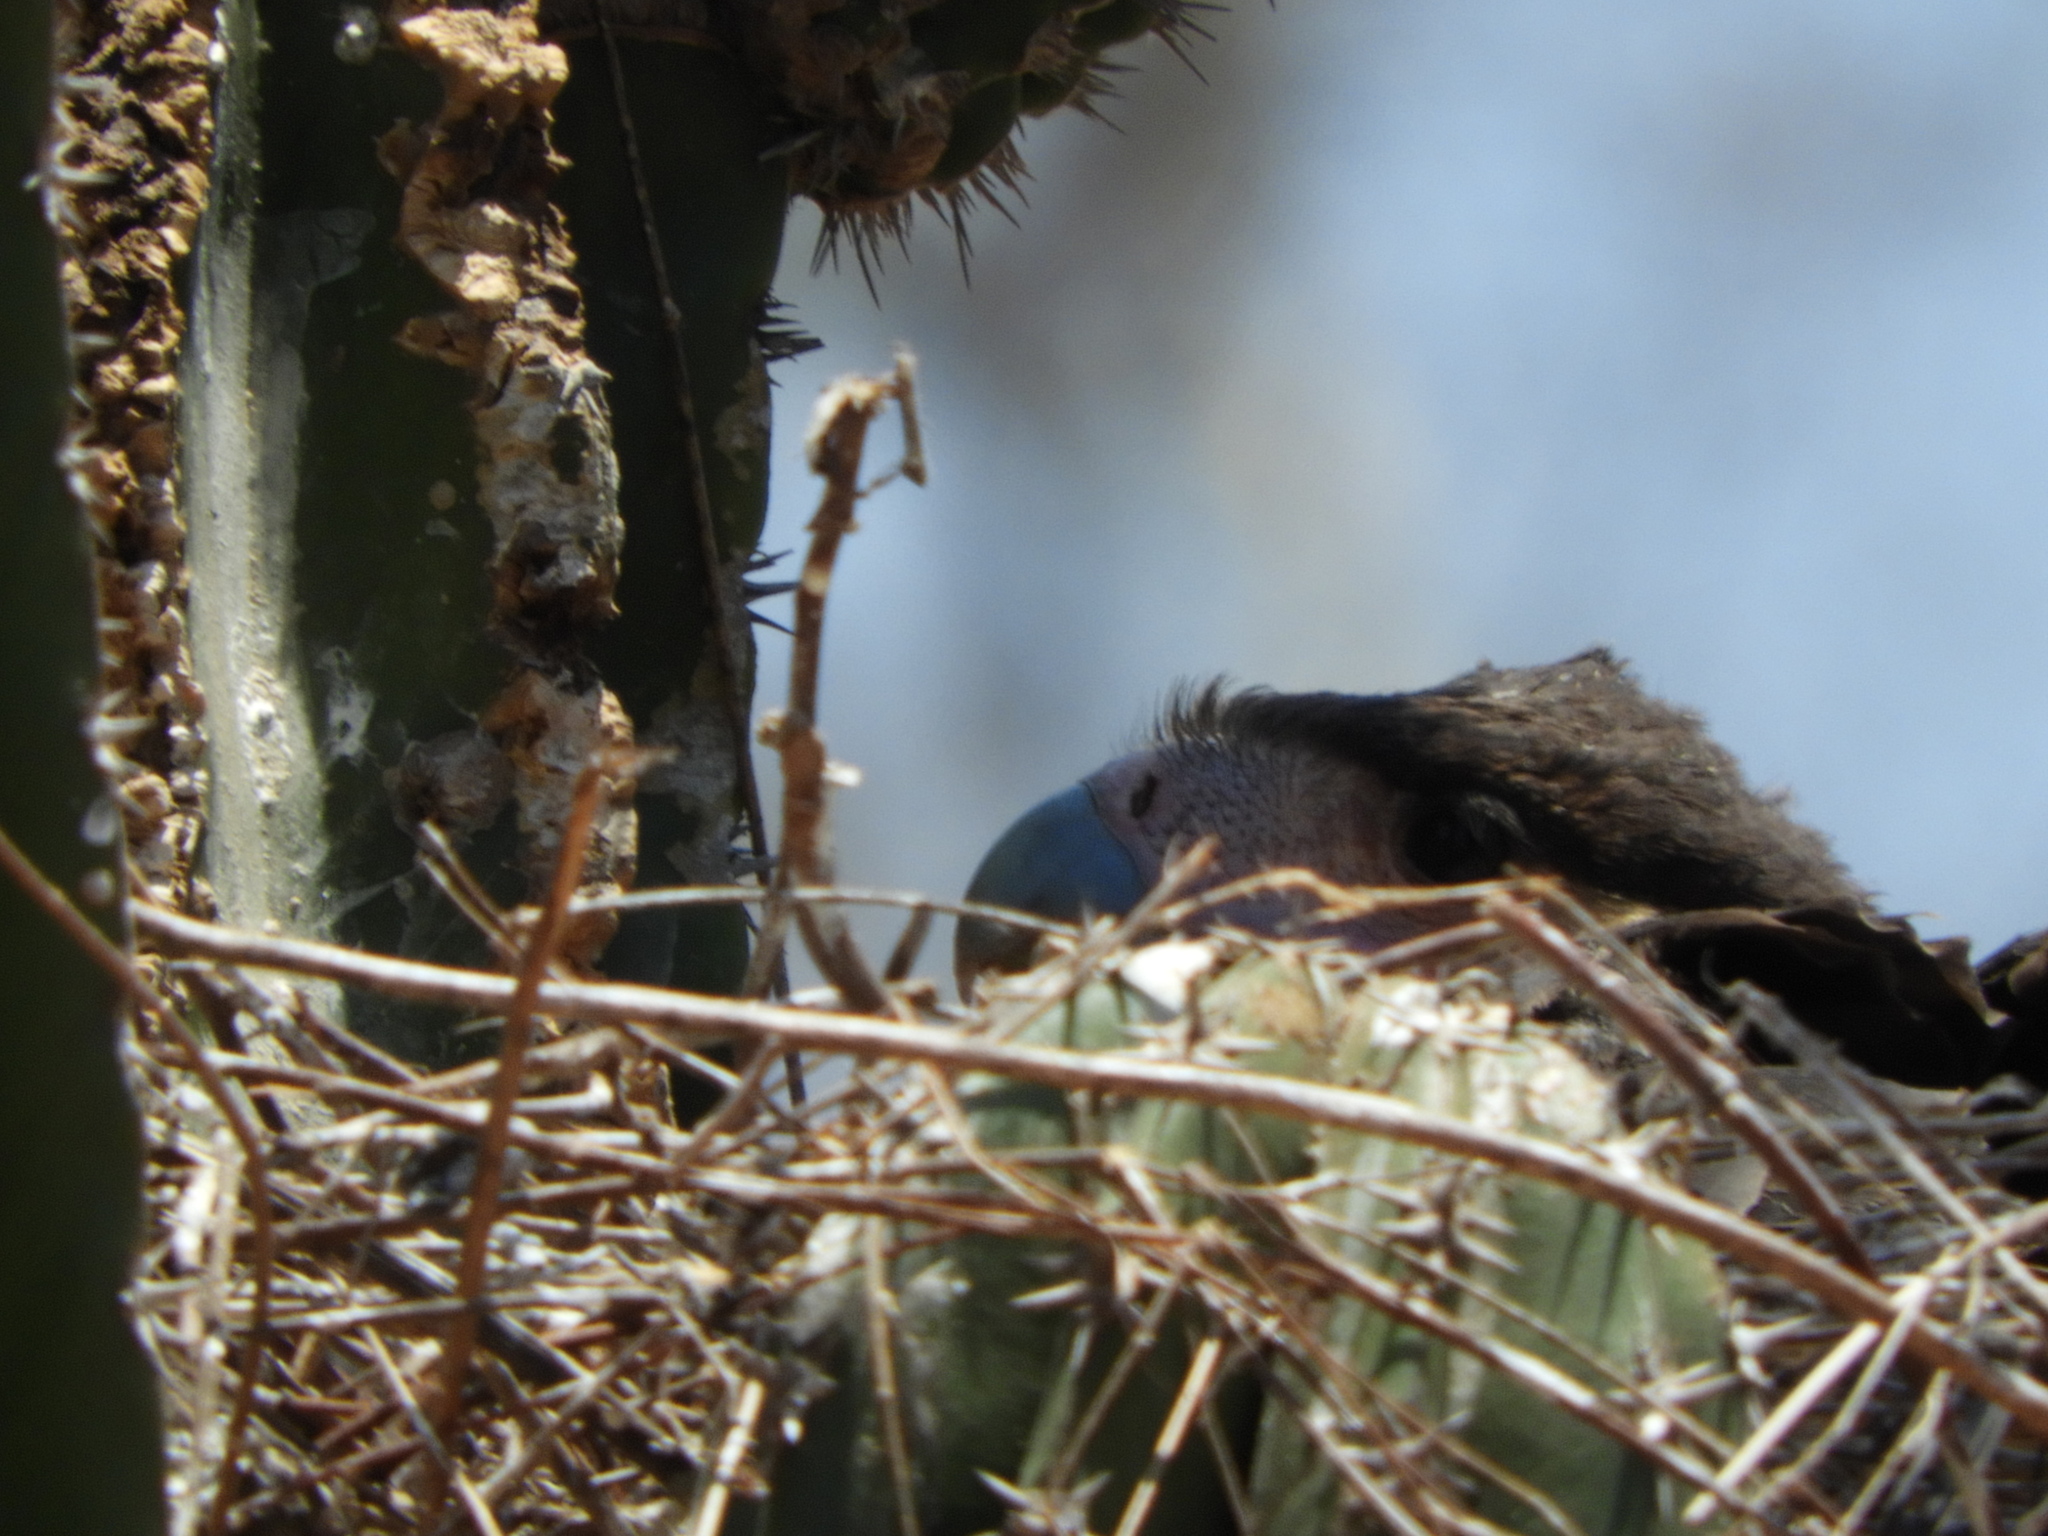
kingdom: Animalia
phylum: Chordata
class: Aves
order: Falconiformes
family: Falconidae
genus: Caracara
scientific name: Caracara plancus
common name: Southern caracara
